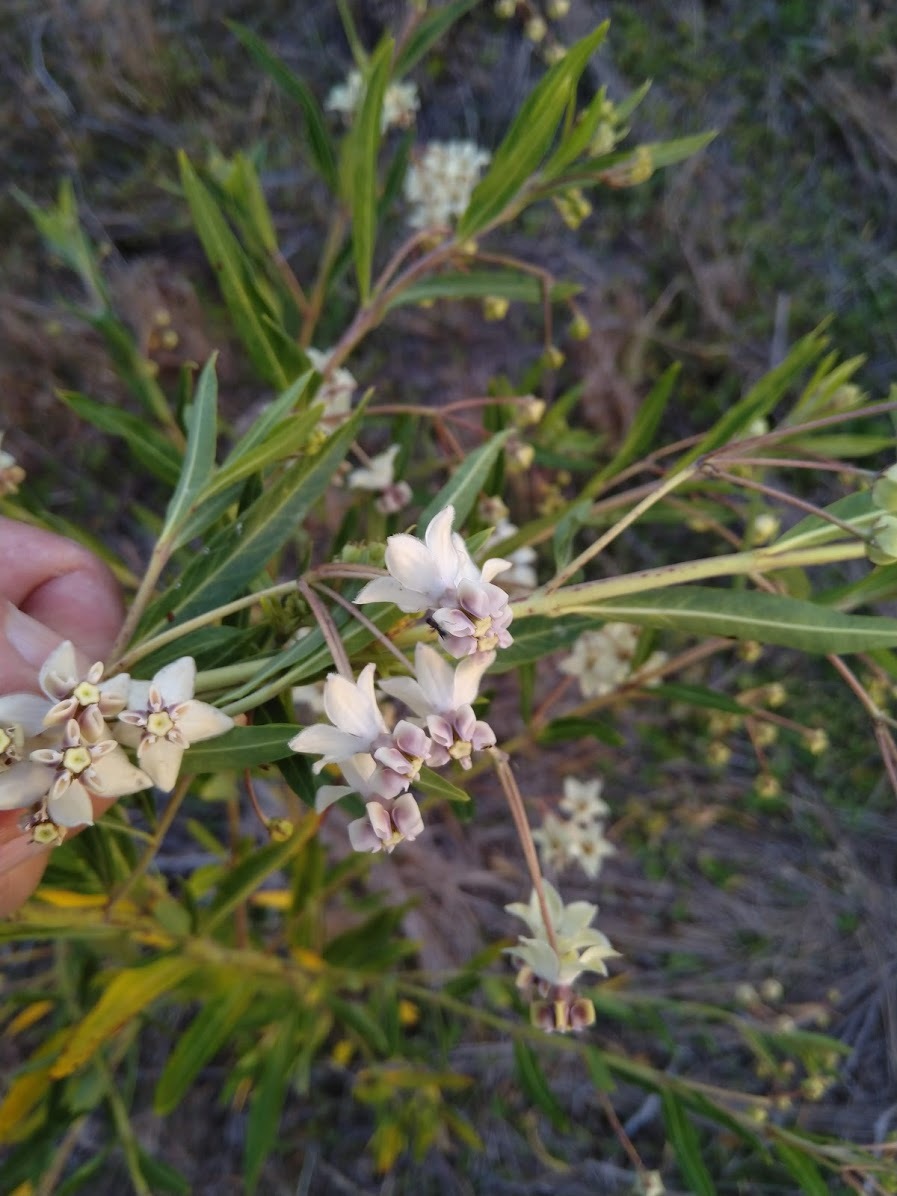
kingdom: Plantae
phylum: Tracheophyta
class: Magnoliopsida
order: Gentianales
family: Apocynaceae
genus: Gomphocarpus
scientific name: Gomphocarpus physocarpus
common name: Balloon cotton bush
